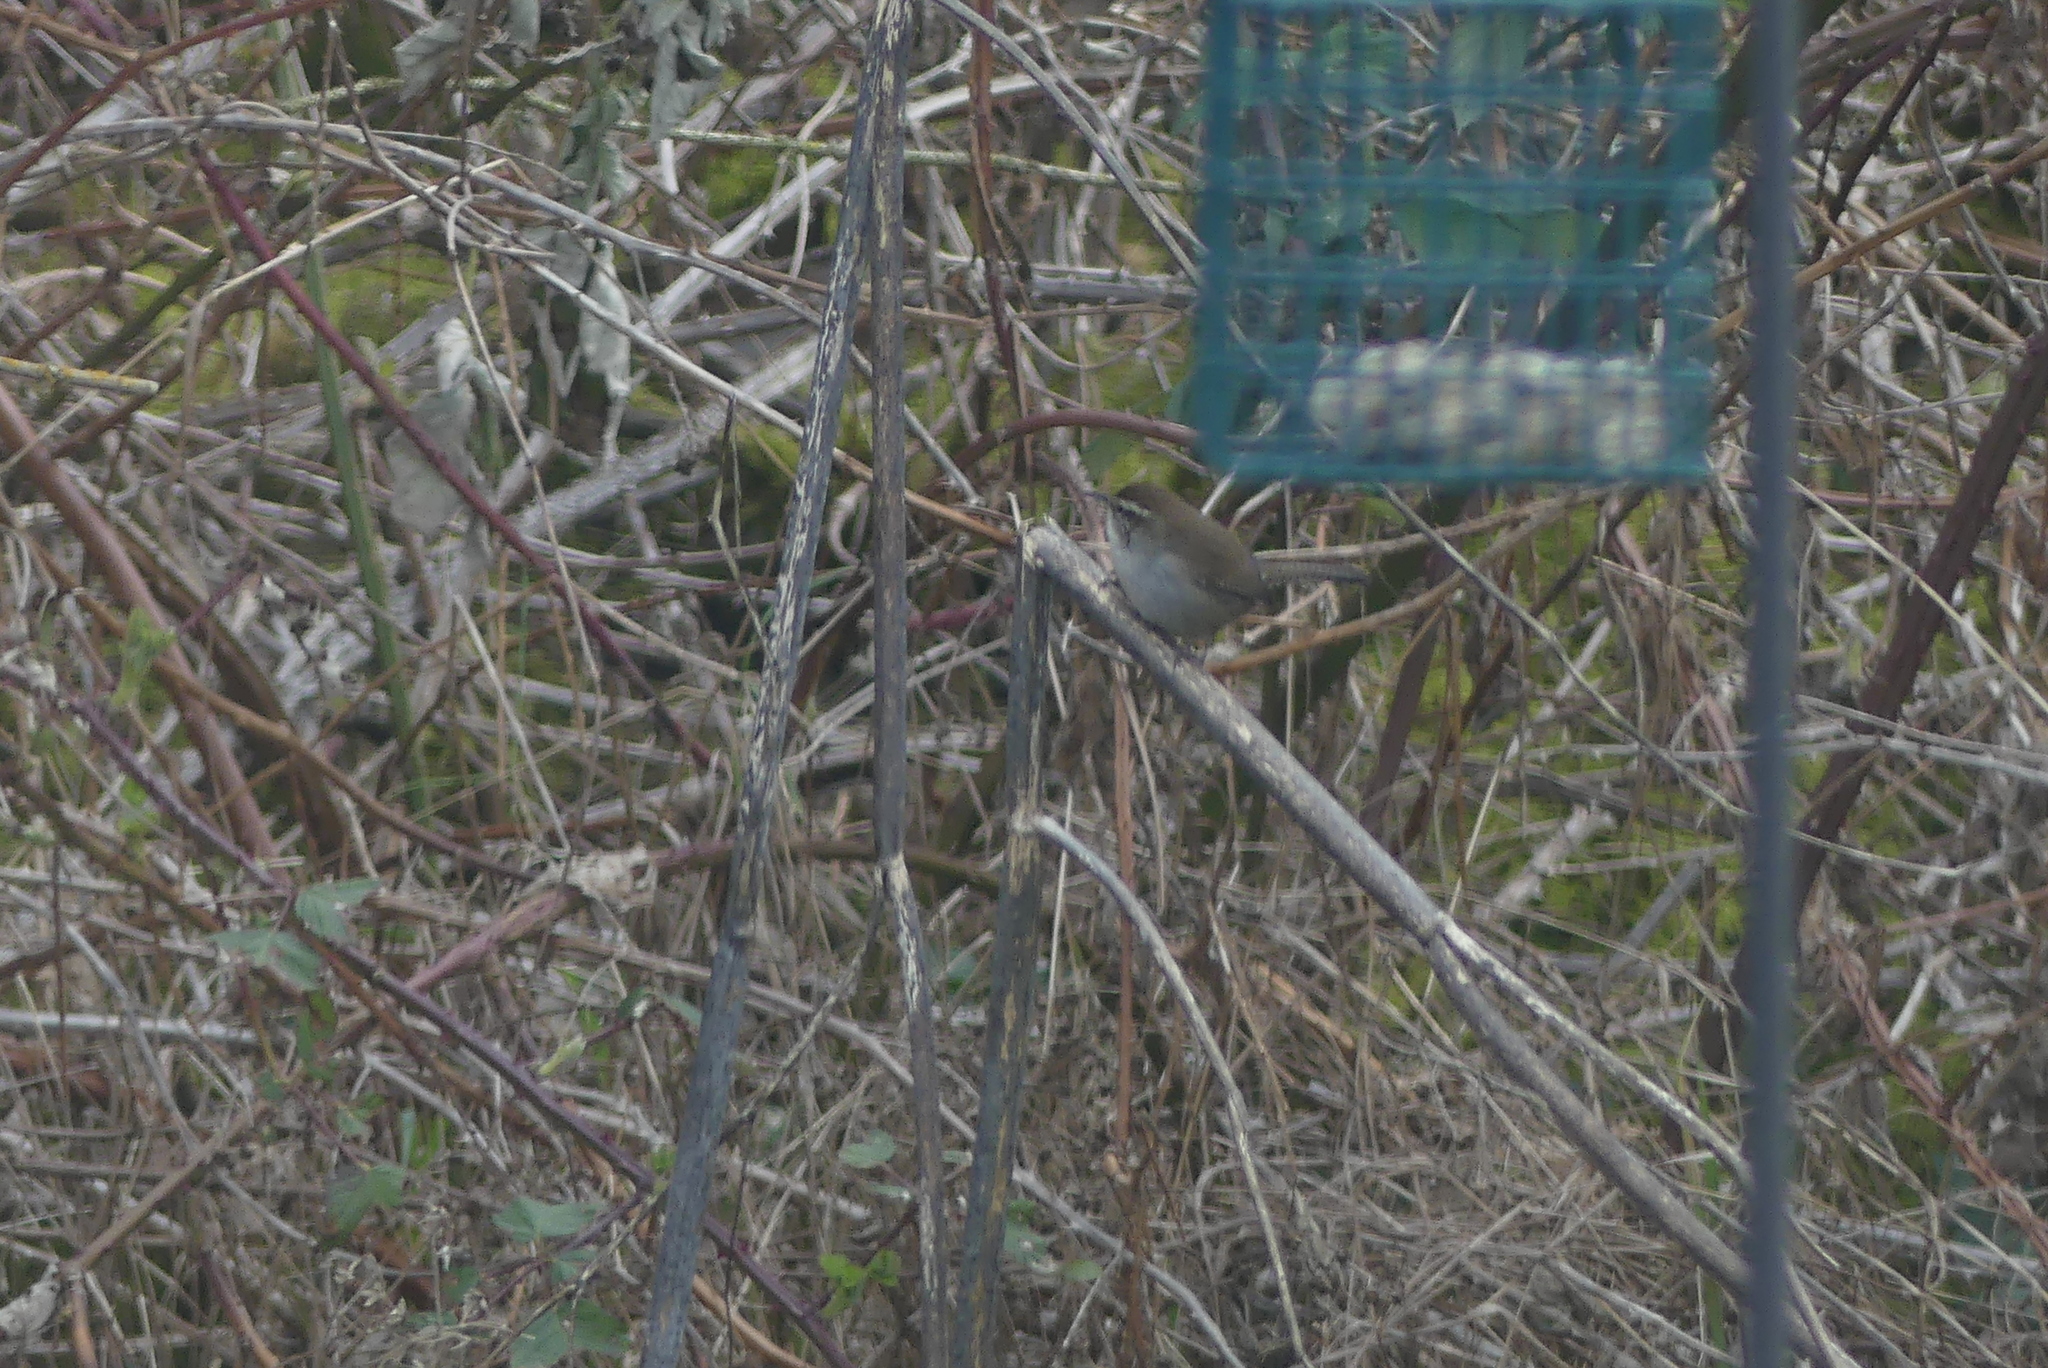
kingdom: Animalia
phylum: Chordata
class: Aves
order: Passeriformes
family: Troglodytidae
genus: Thryomanes
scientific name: Thryomanes bewickii
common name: Bewick's wren
